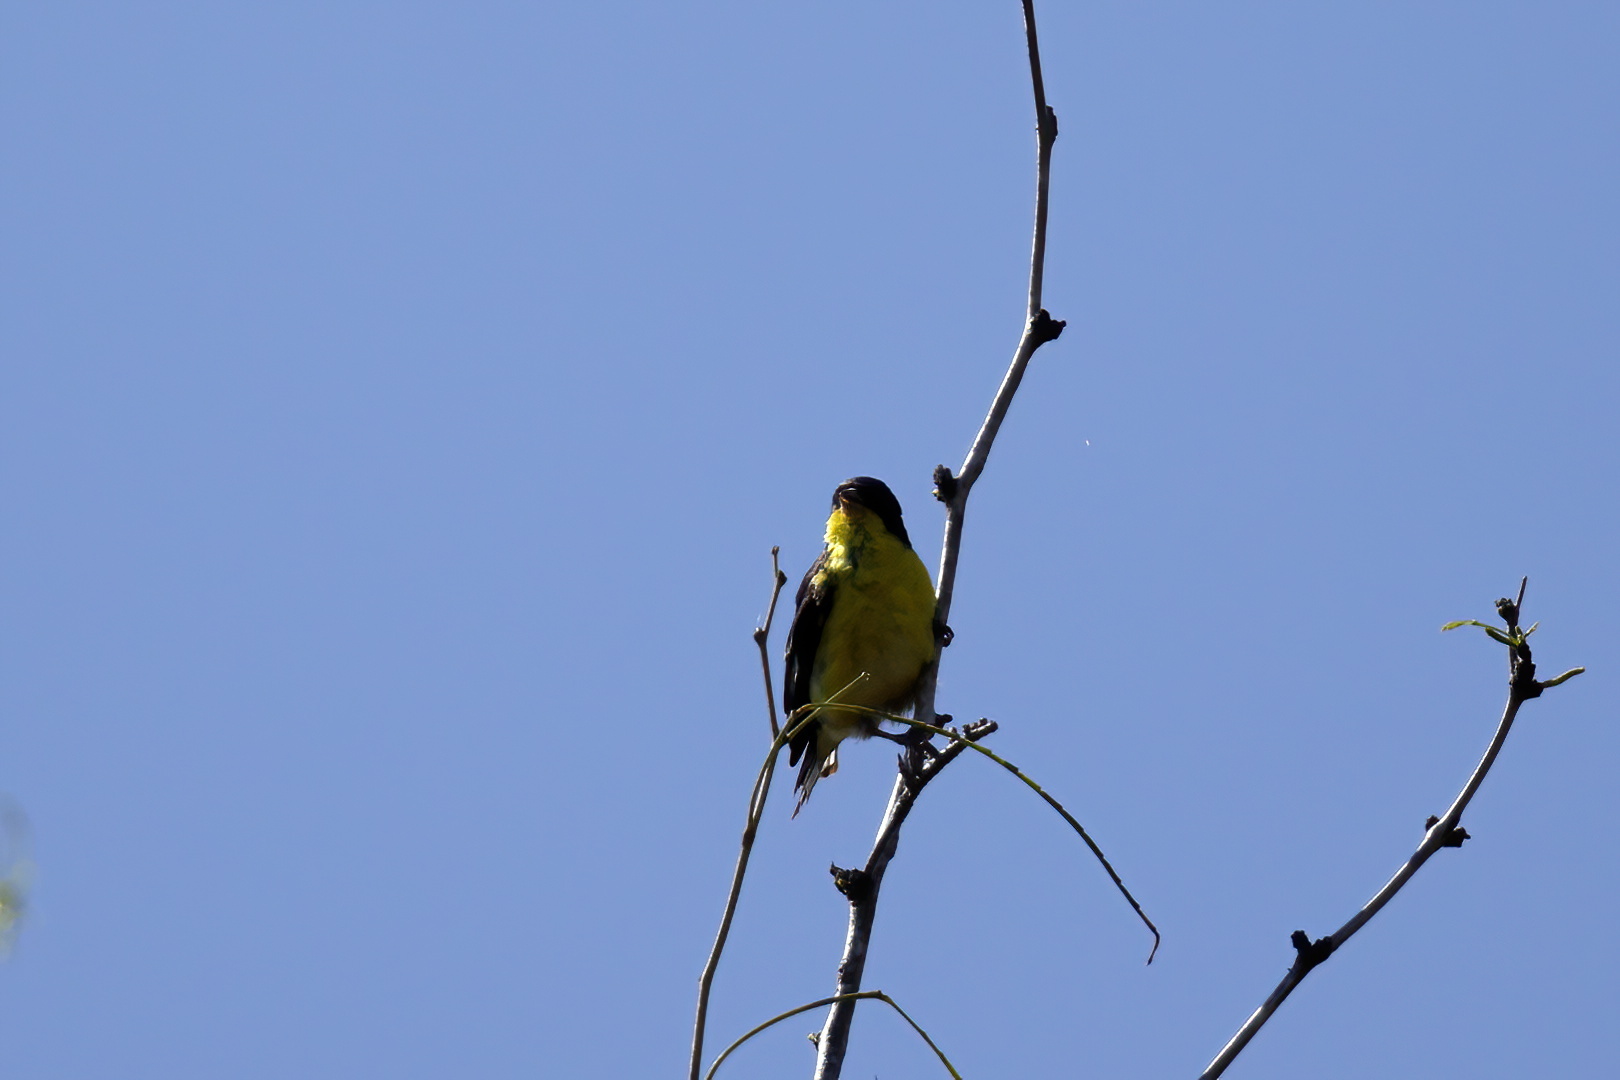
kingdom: Animalia
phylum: Chordata
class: Aves
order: Passeriformes
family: Fringillidae
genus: Spinus
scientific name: Spinus psaltria
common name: Lesser goldfinch
